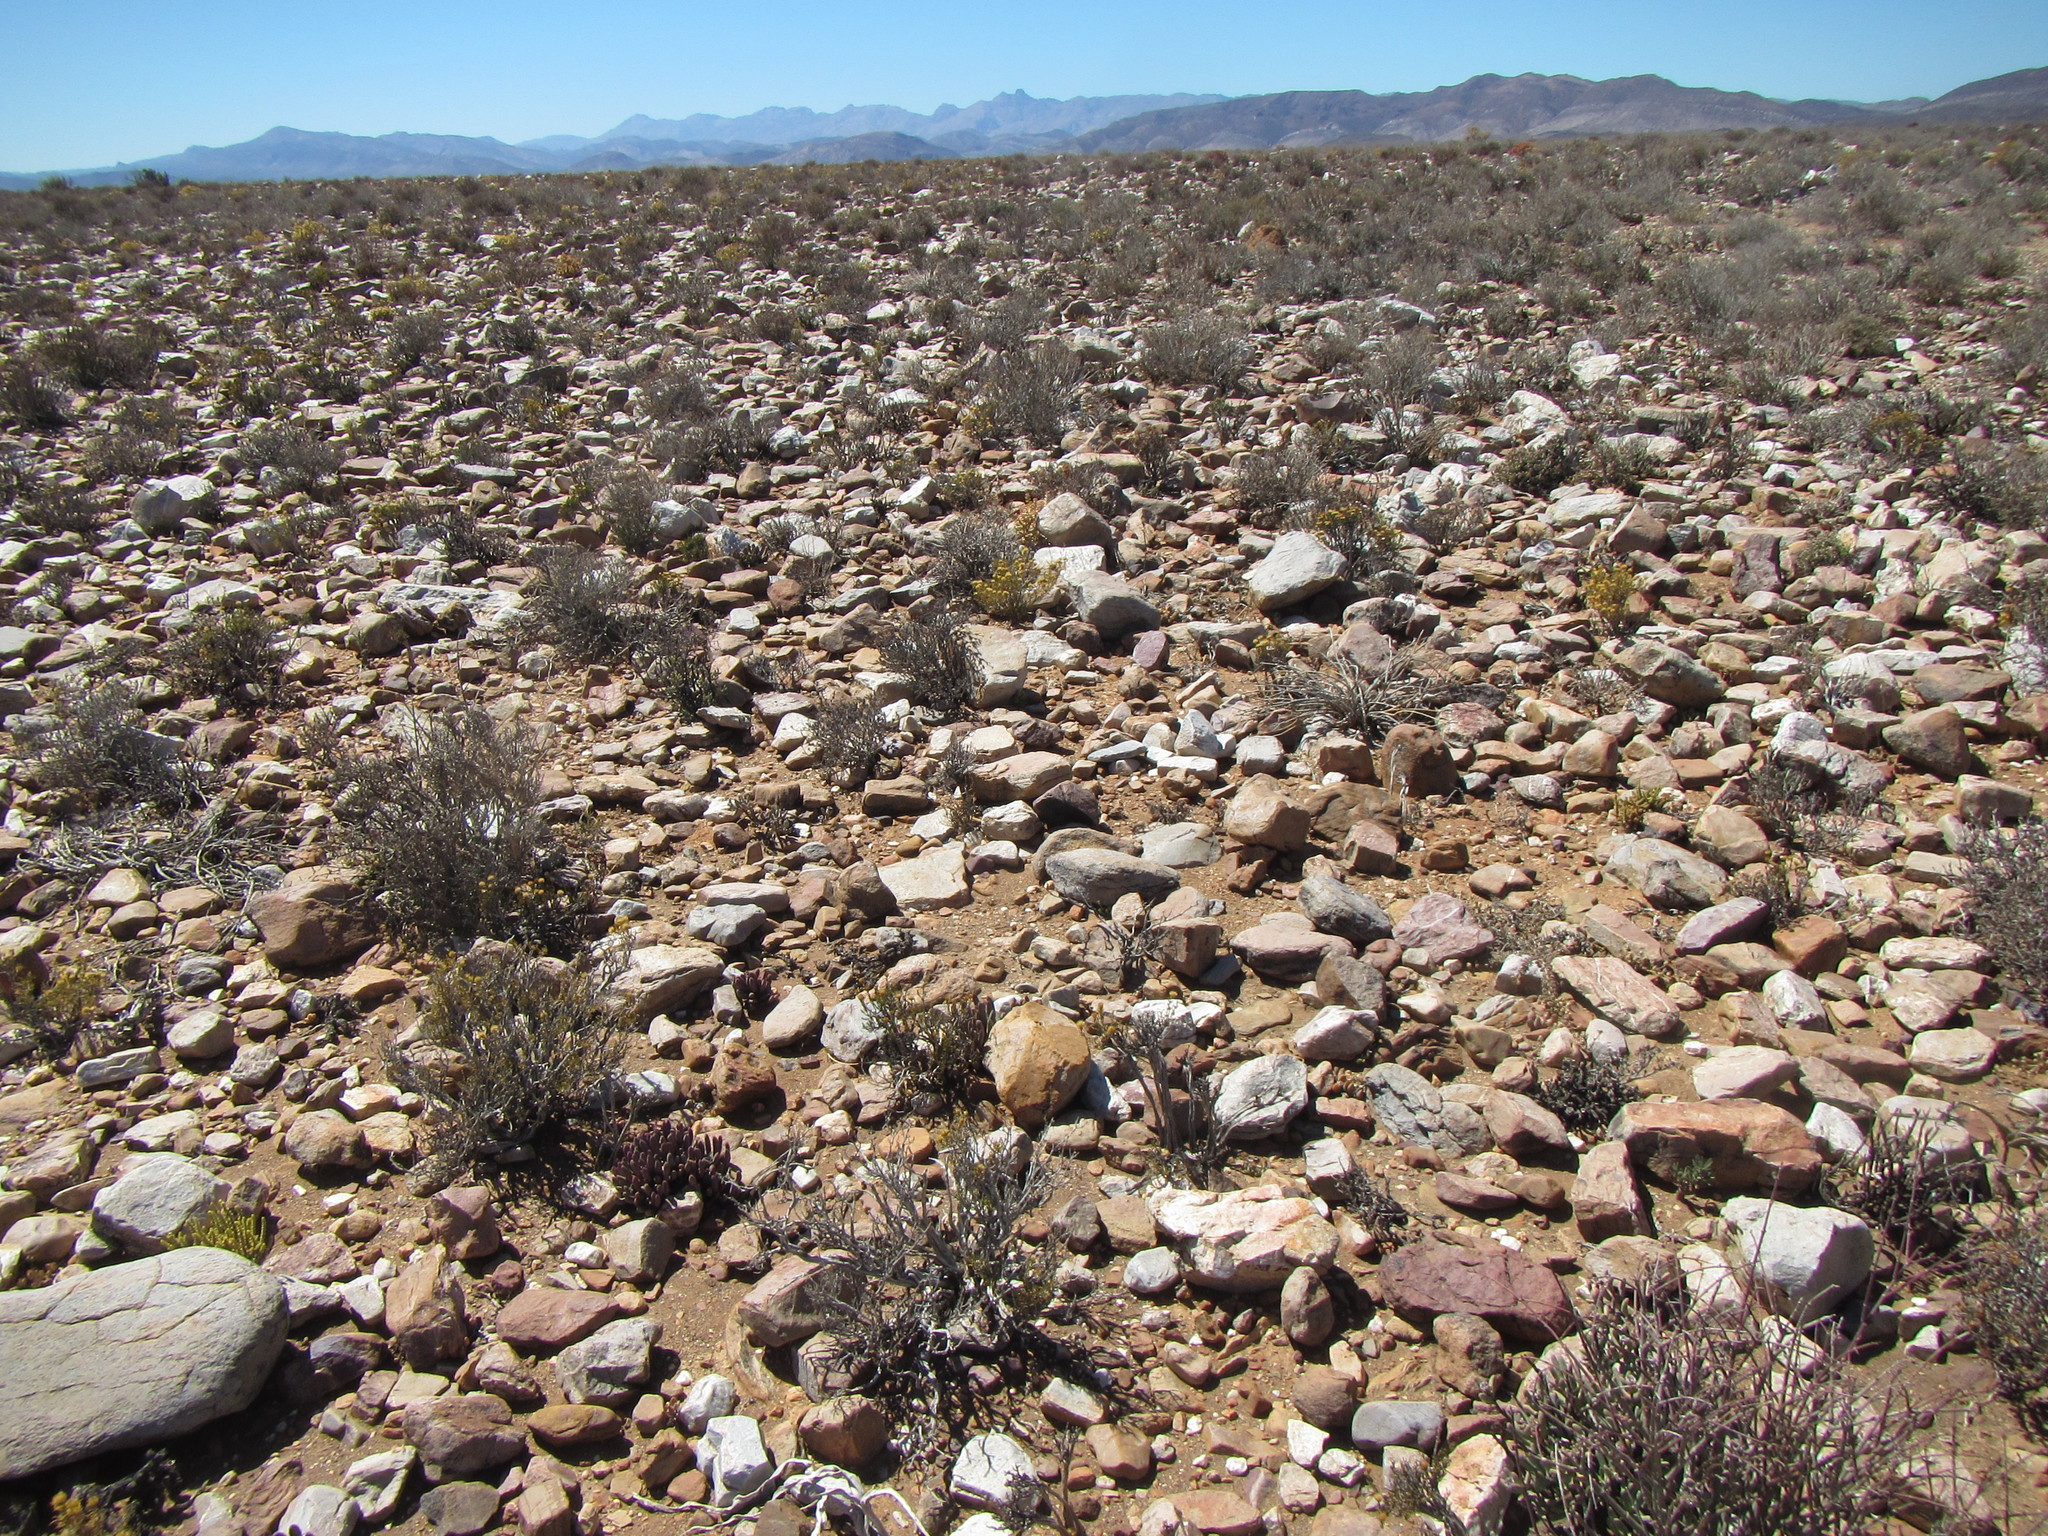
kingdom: Plantae
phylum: Tracheophyta
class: Magnoliopsida
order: Saxifragales
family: Crassulaceae
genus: Crassula
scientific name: Crassula muscosa
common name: Toy-cypress
